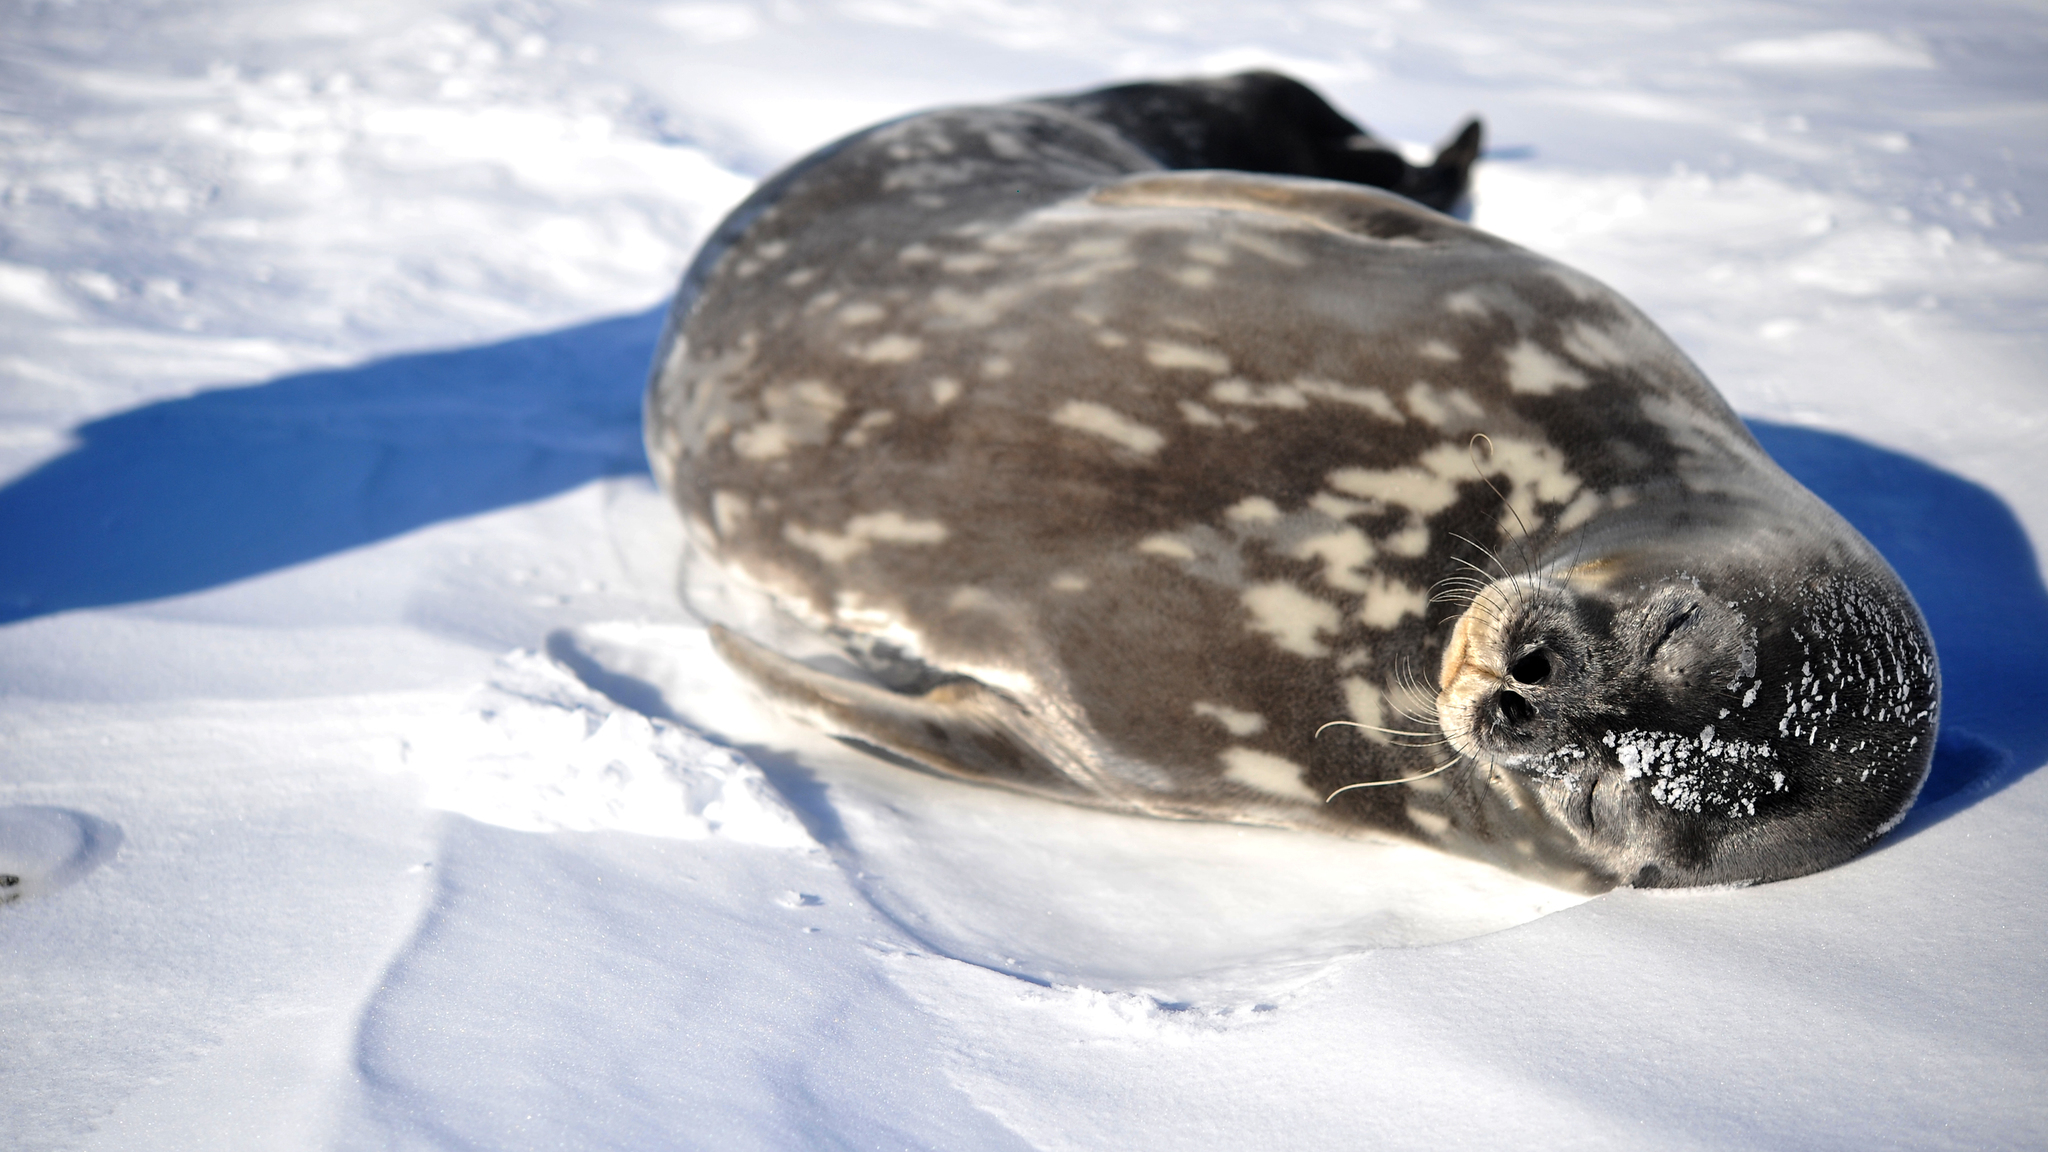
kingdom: Animalia
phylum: Chordata
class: Mammalia
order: Carnivora
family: Phocidae
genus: Leptonychotes
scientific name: Leptonychotes weddellii
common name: Weddell seal
